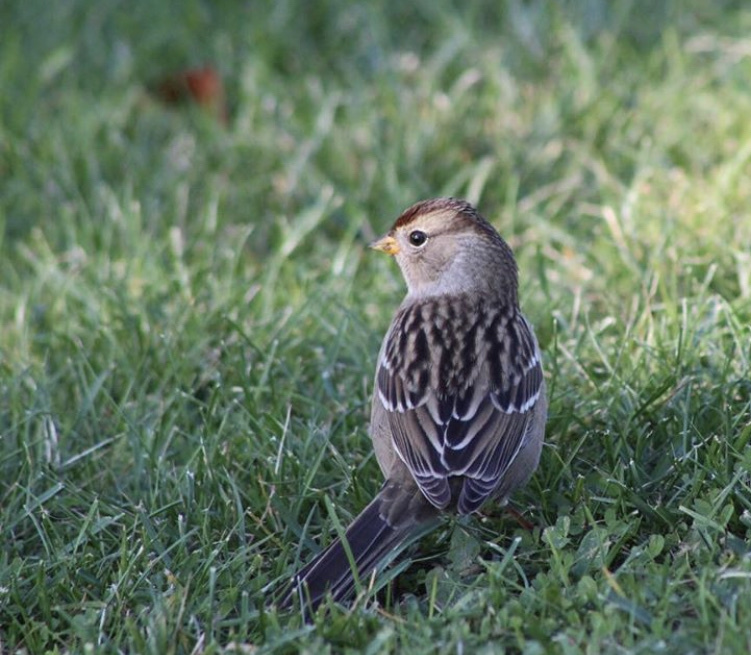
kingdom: Animalia
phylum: Chordata
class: Aves
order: Passeriformes
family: Passerellidae
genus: Zonotrichia
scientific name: Zonotrichia leucophrys
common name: White-crowned sparrow
